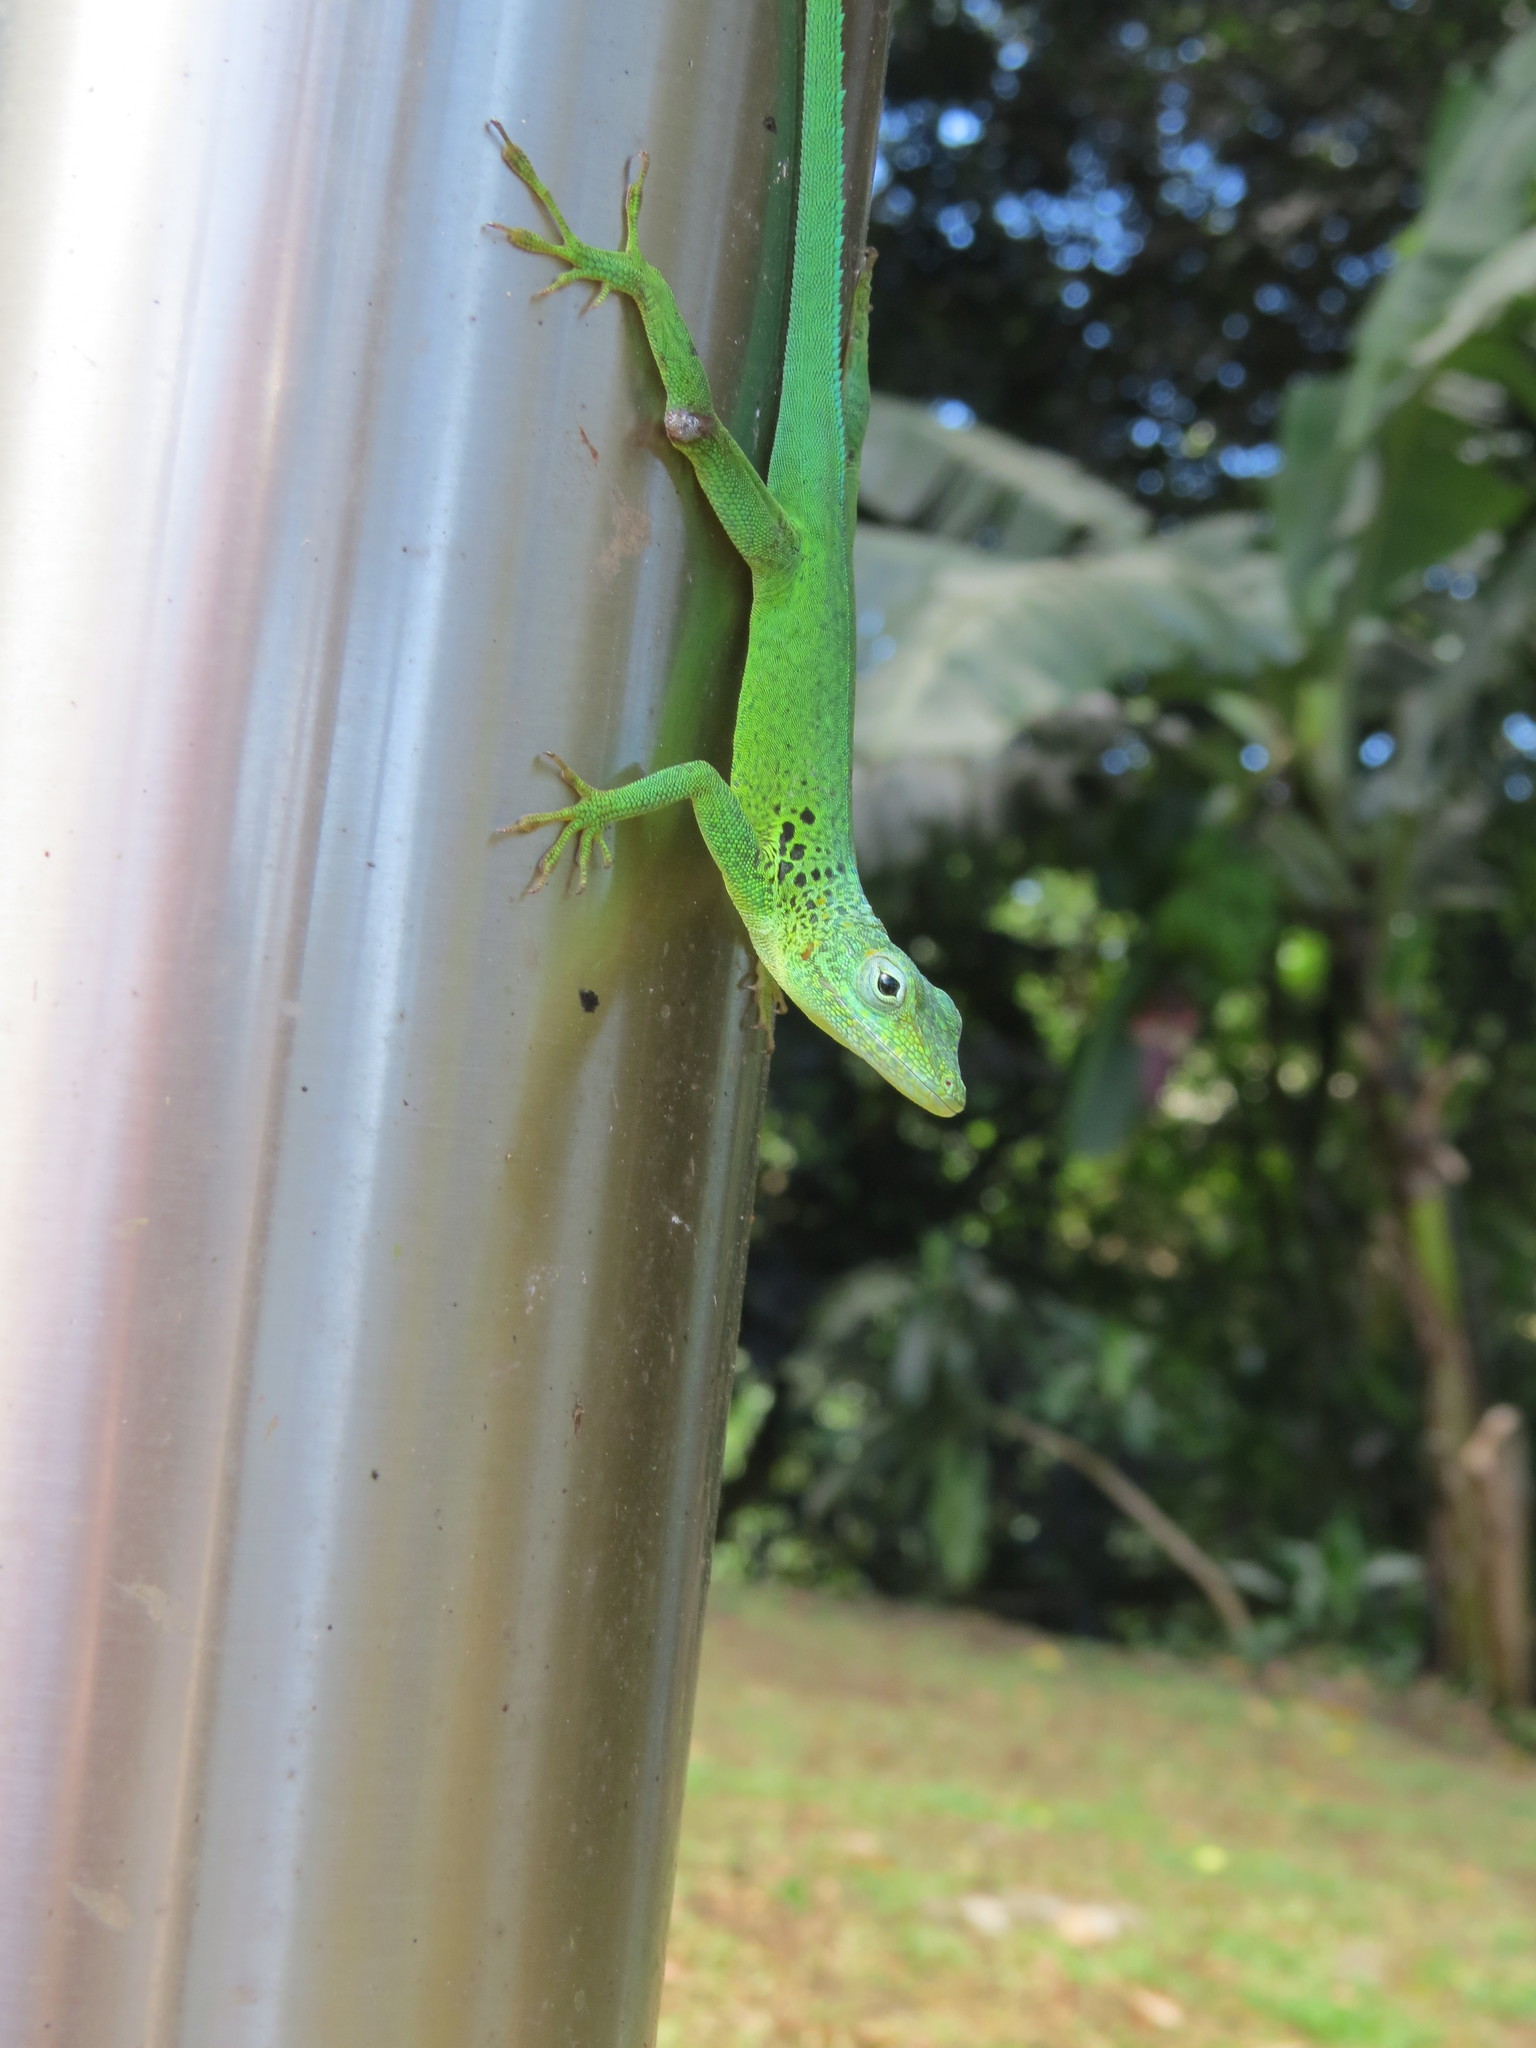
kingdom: Animalia
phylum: Chordata
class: Squamata
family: Dactyloidae
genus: Anolis
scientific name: Anolis marmoratus
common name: Guadeloupe anole
